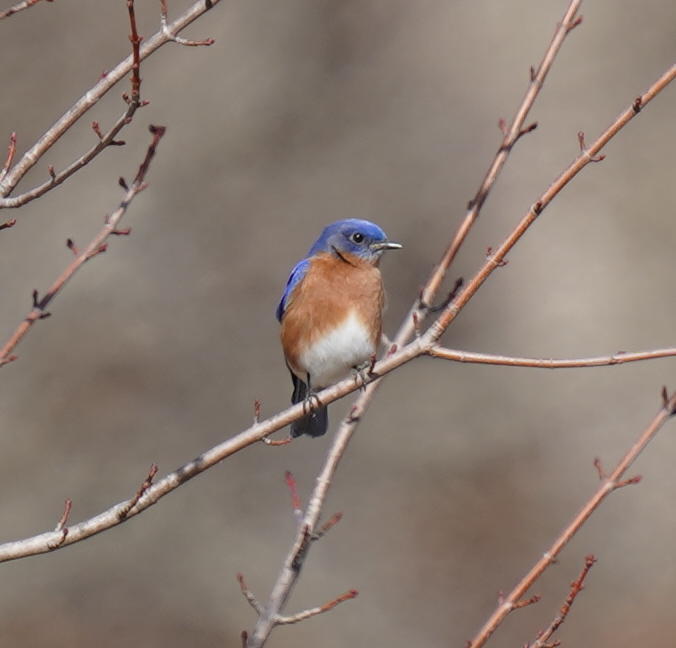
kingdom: Animalia
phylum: Chordata
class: Aves
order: Passeriformes
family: Turdidae
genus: Sialia
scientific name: Sialia sialis
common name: Eastern bluebird
